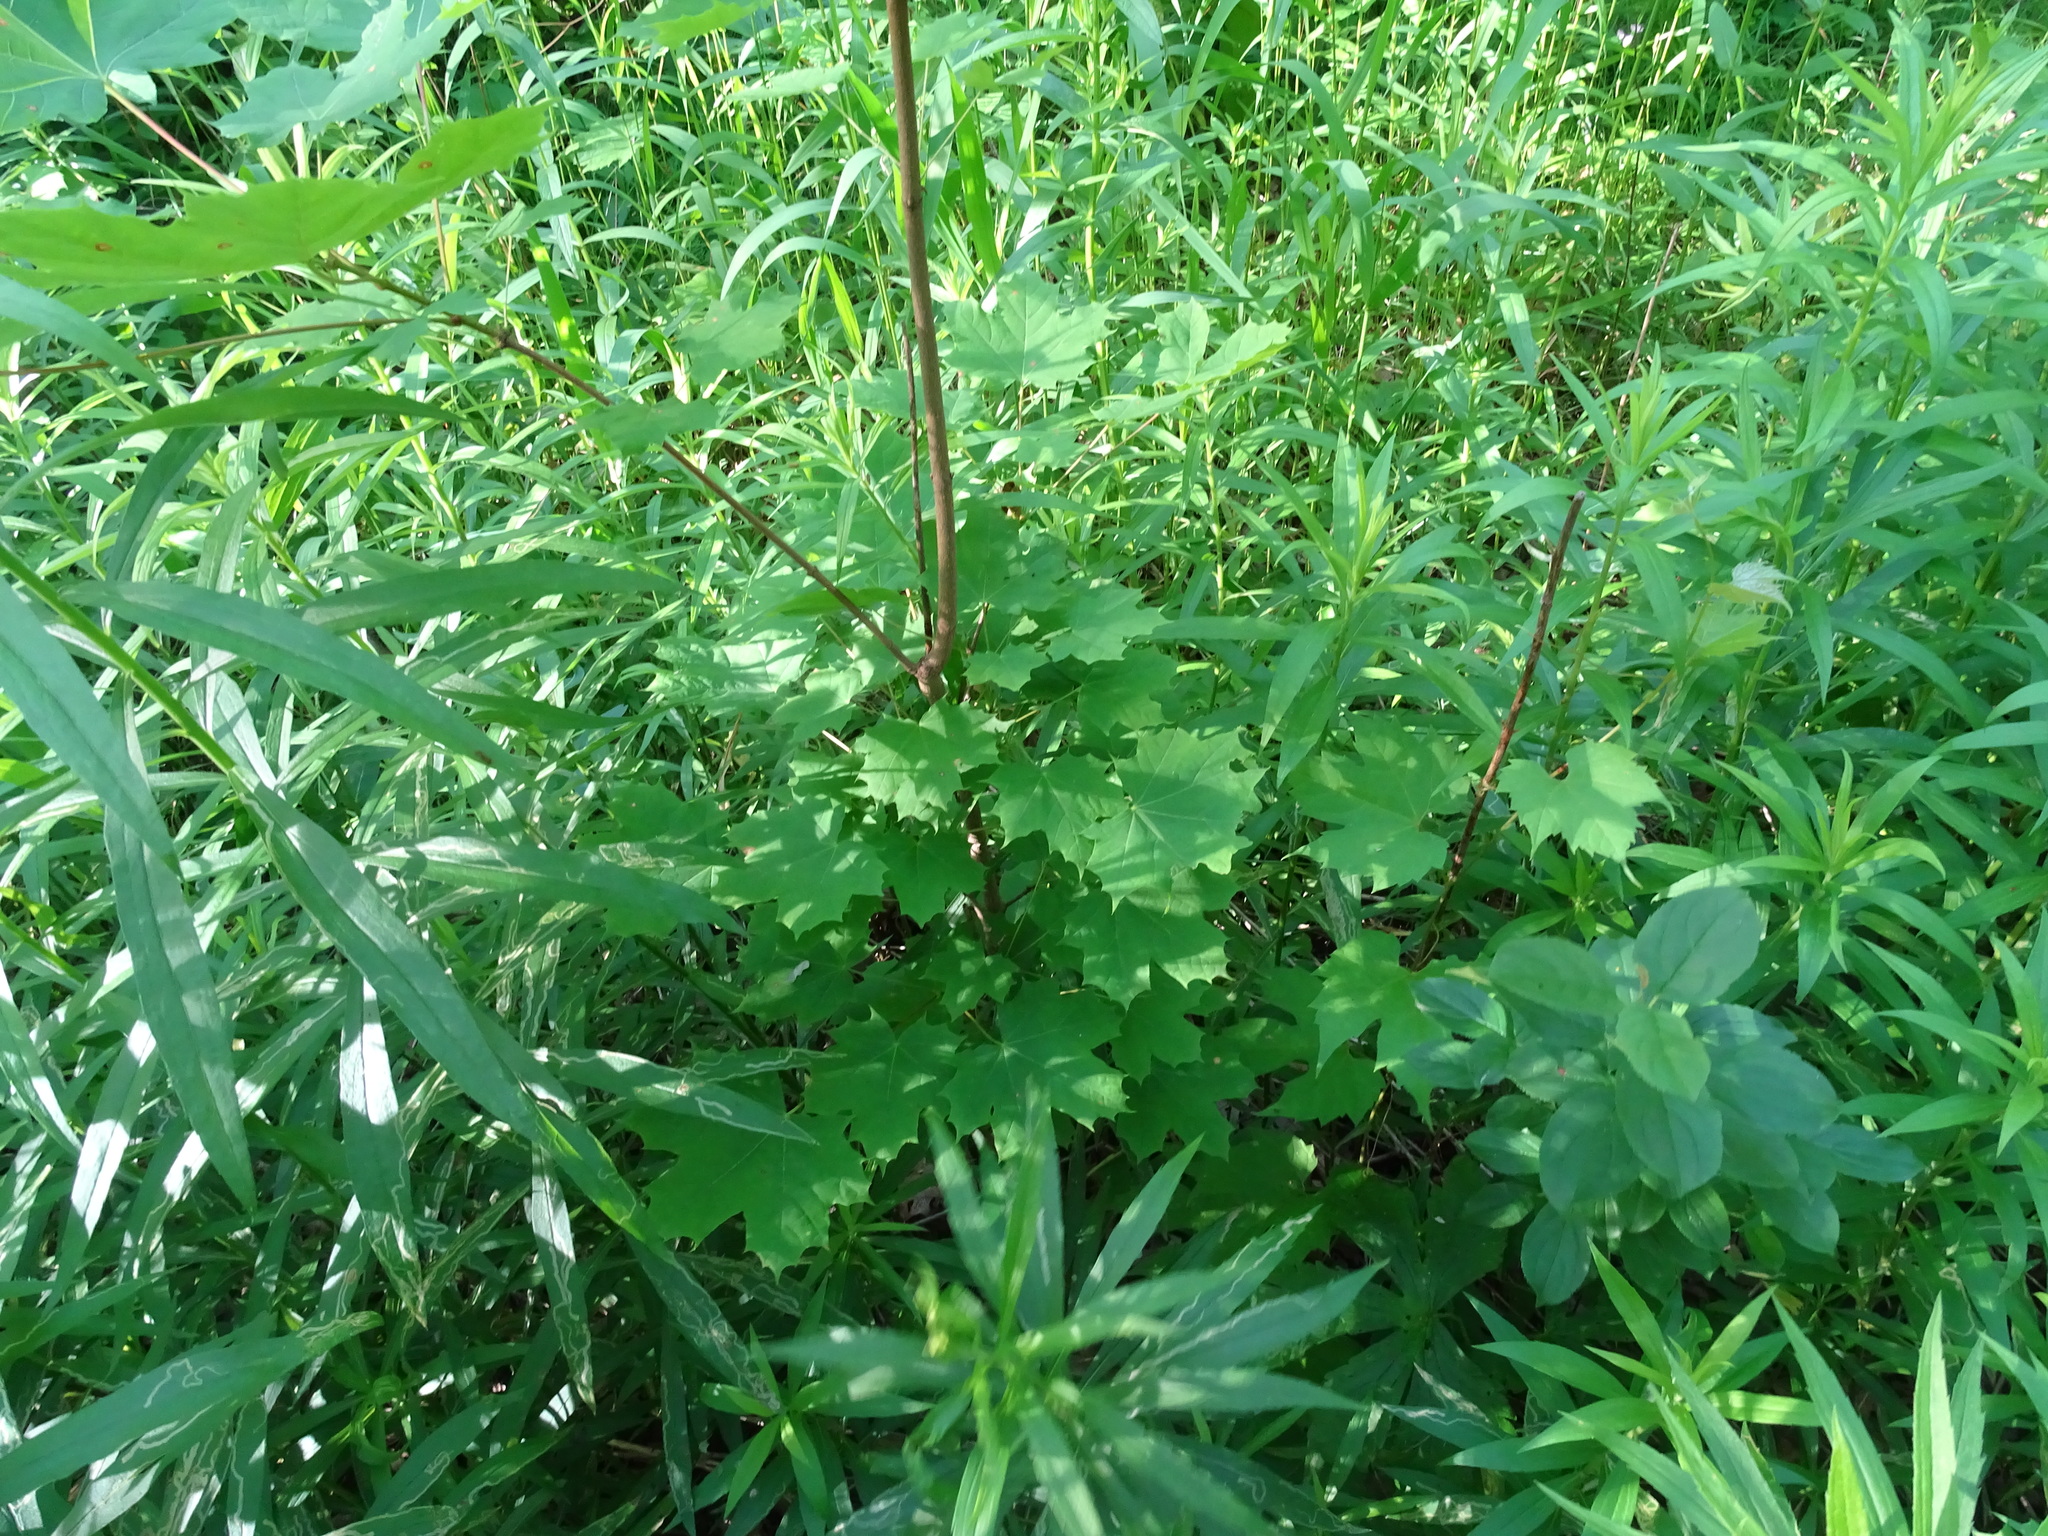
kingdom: Plantae
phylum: Tracheophyta
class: Magnoliopsida
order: Sapindales
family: Sapindaceae
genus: Acer
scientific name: Acer platanoides
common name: Norway maple
